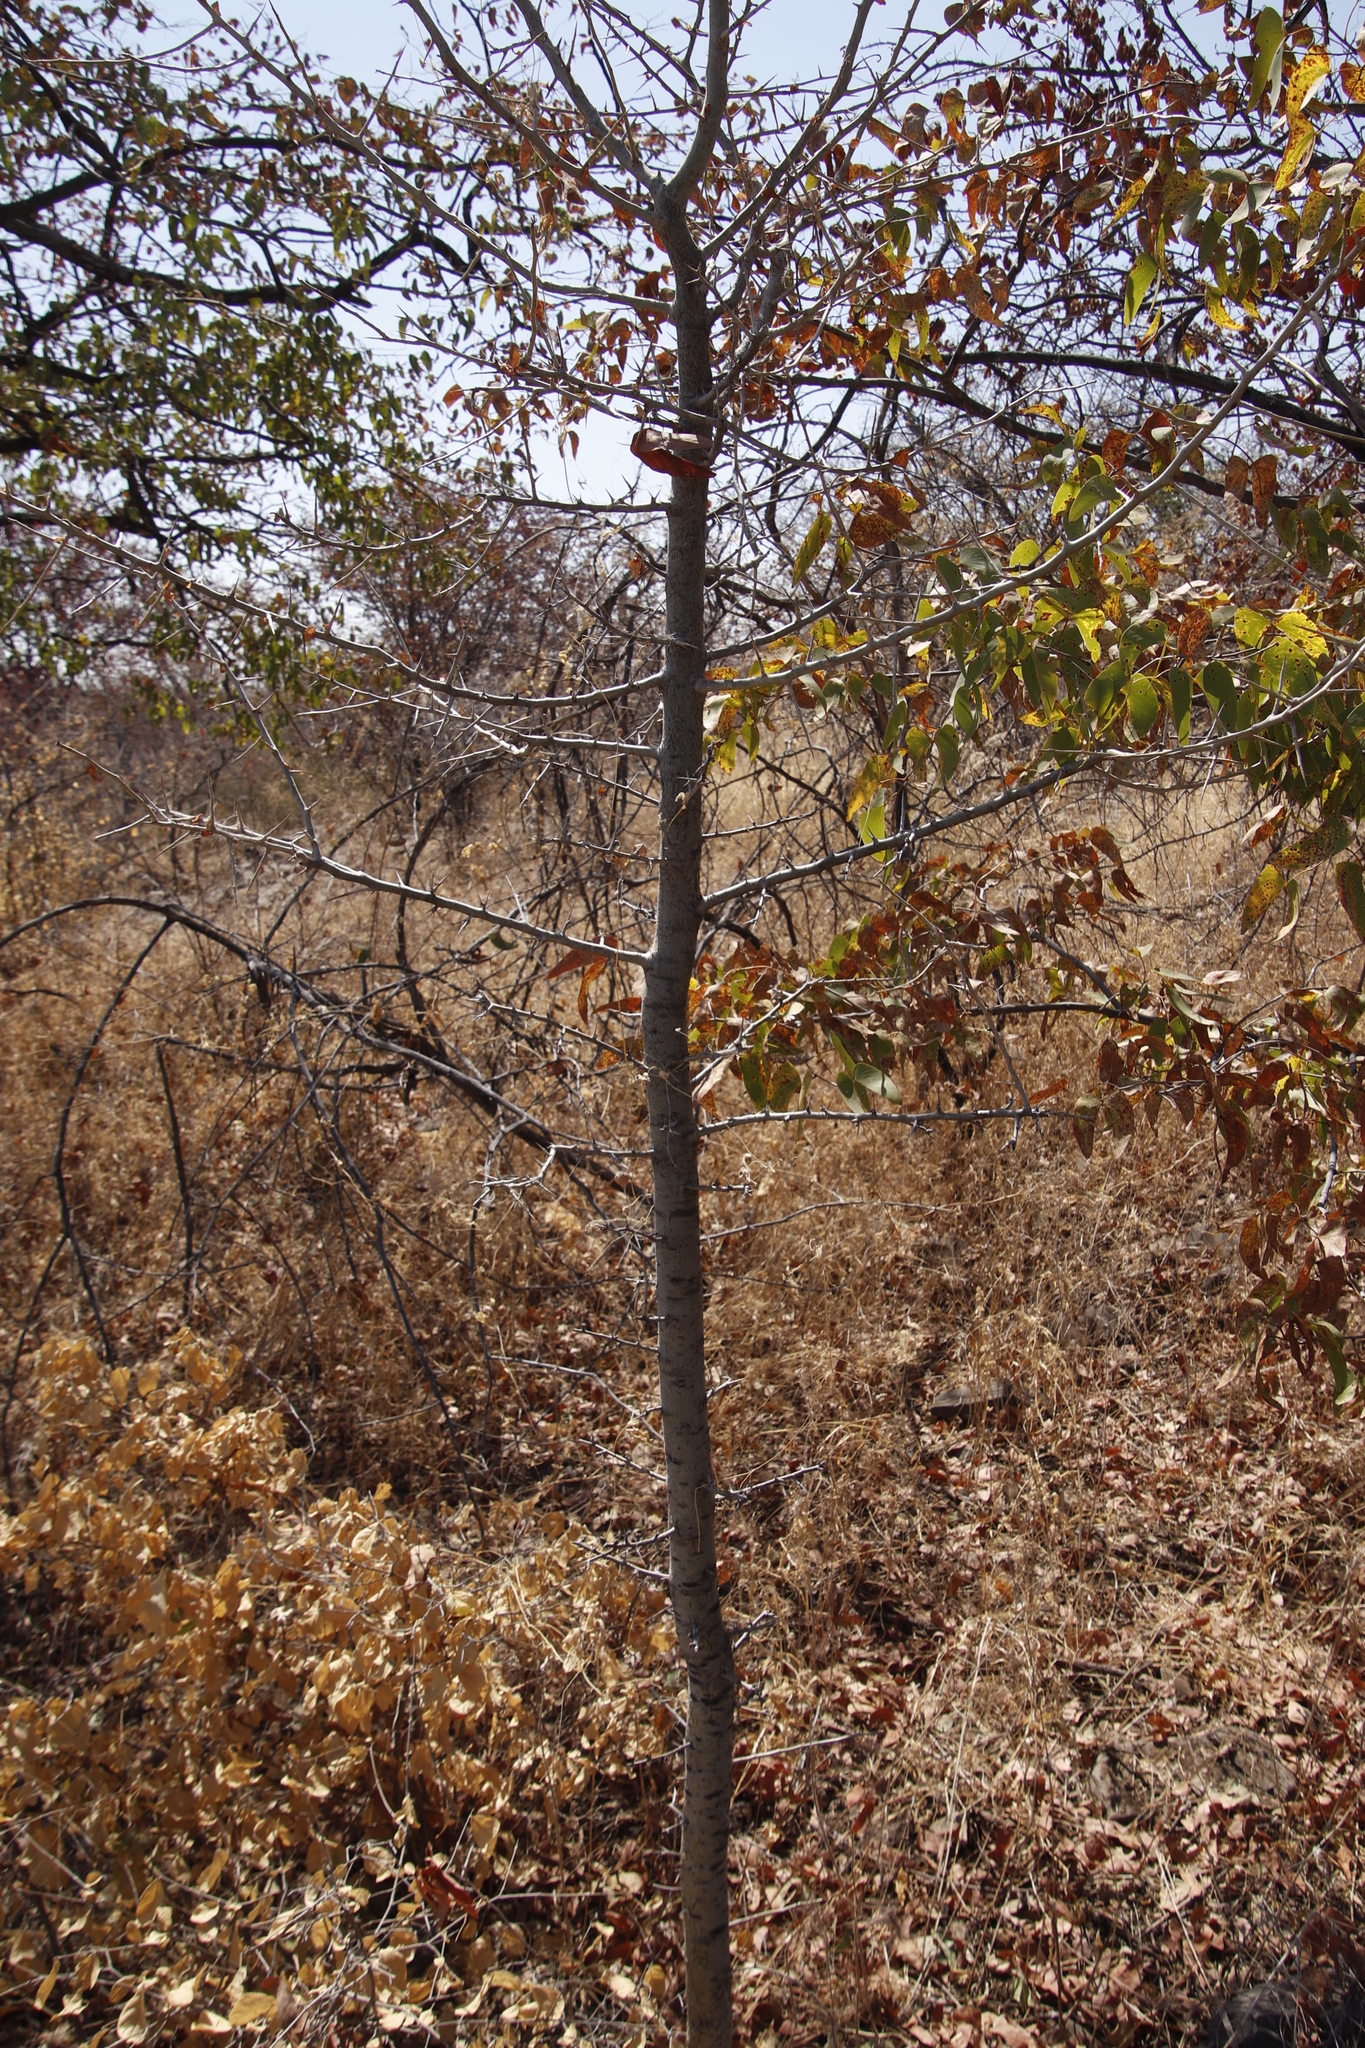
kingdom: Plantae
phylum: Tracheophyta
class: Magnoliopsida
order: Fabales
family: Fabaceae
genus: Colophospermum
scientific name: Colophospermum mopane
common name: Mopane
